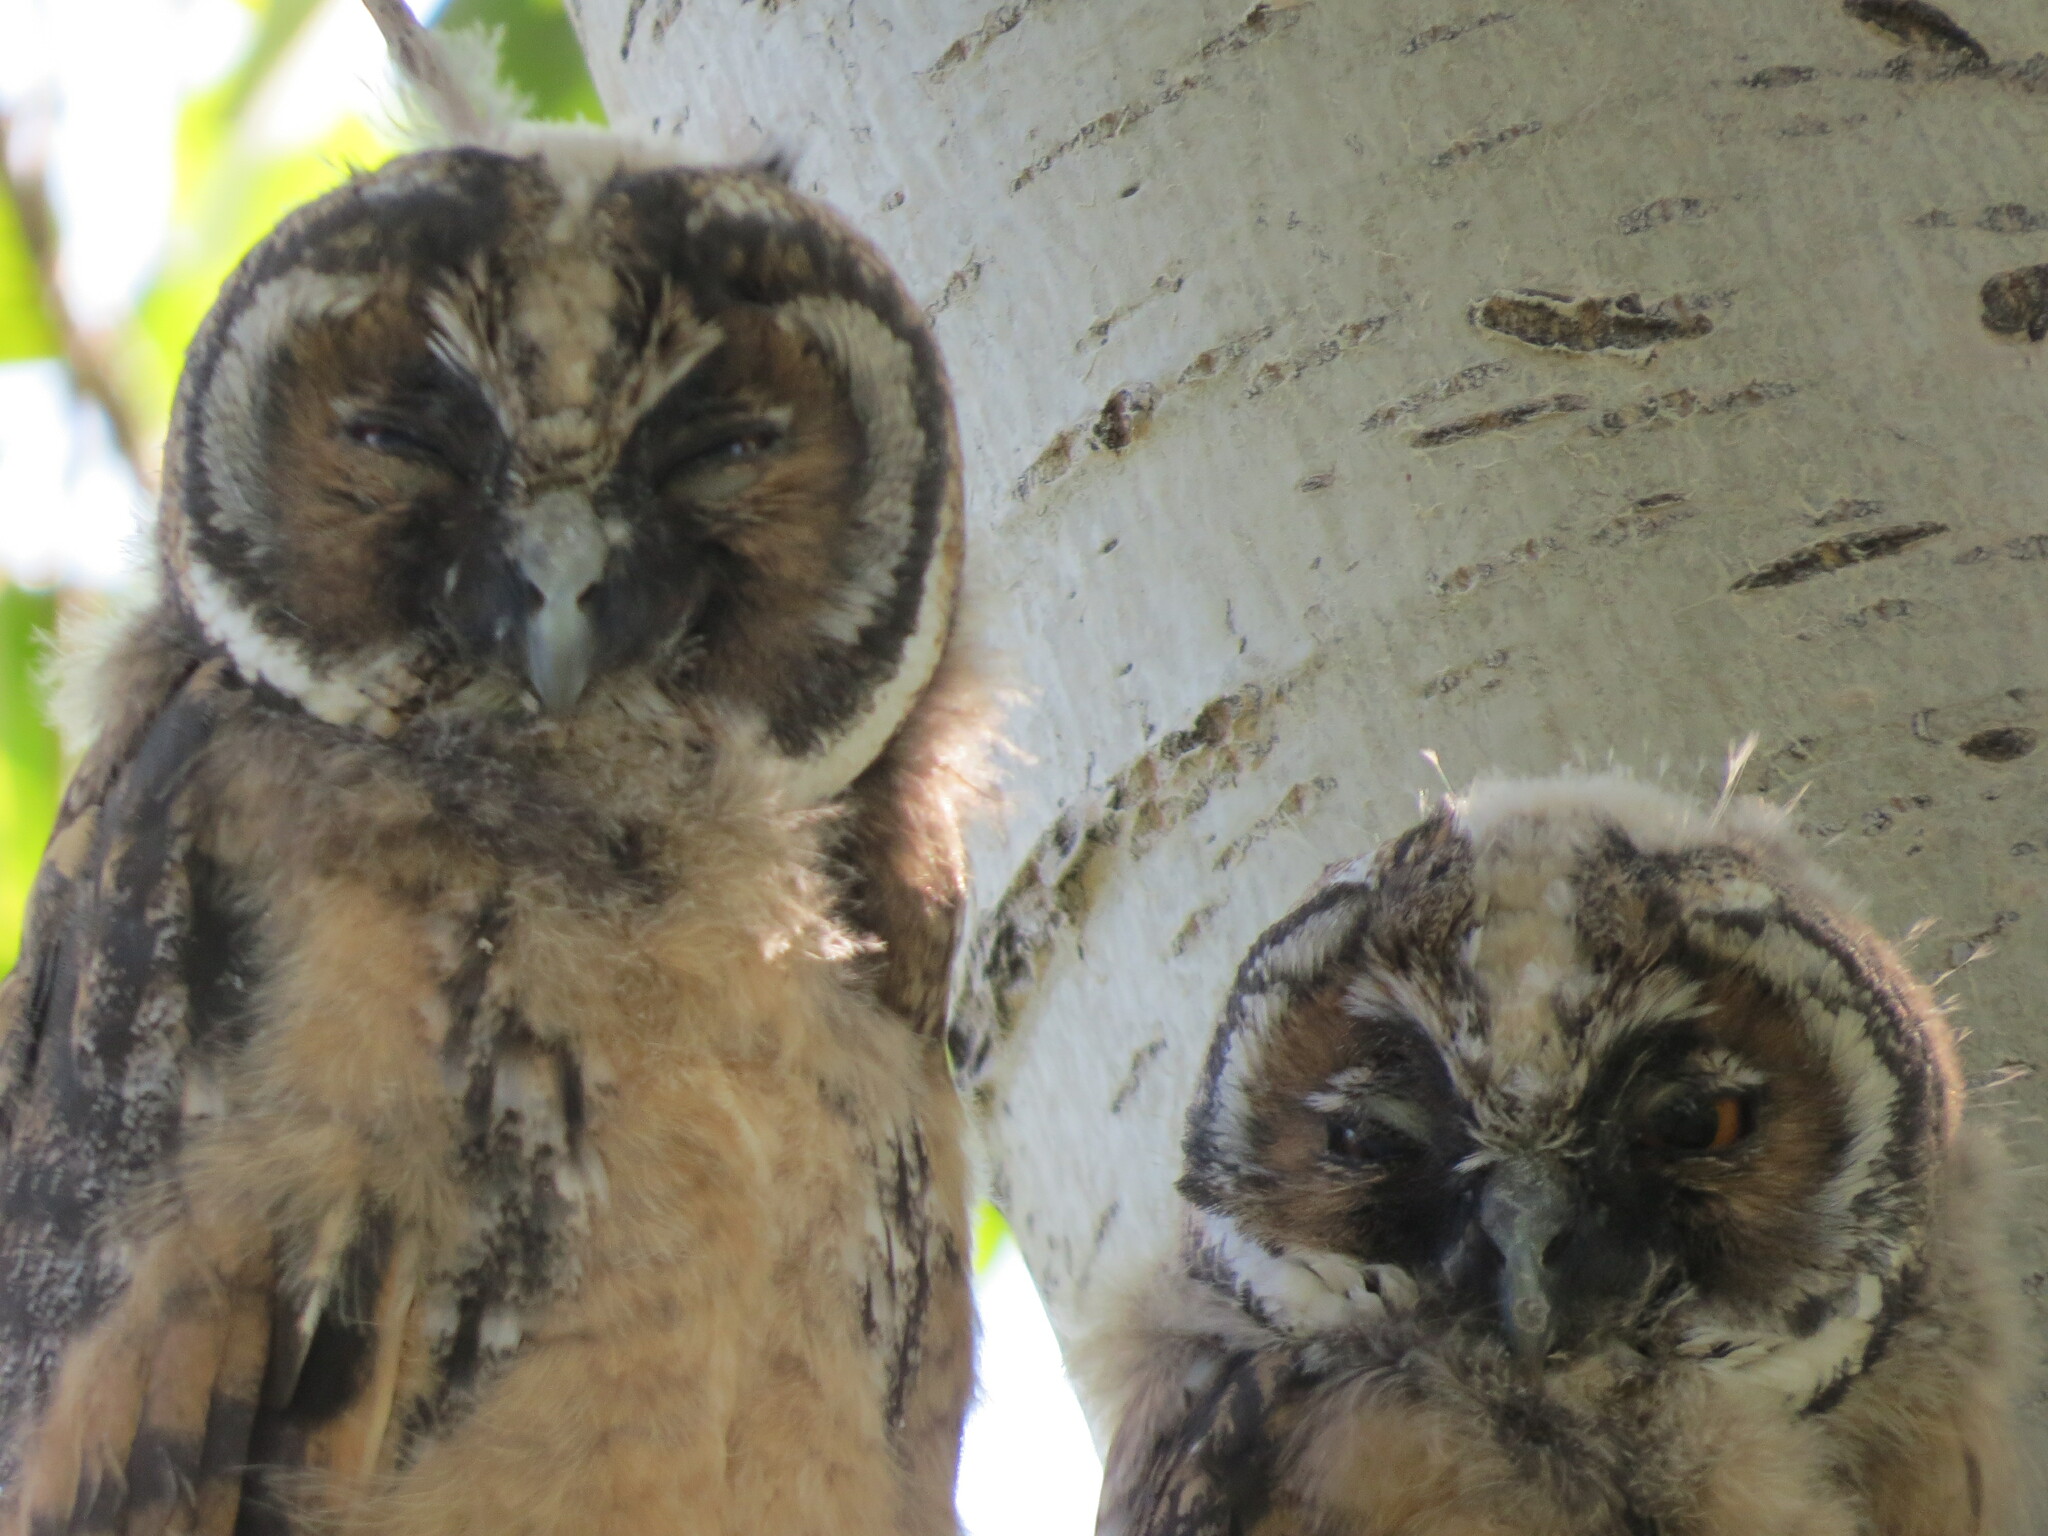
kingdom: Animalia
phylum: Chordata
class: Aves
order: Strigiformes
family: Strigidae
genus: Asio
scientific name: Asio otus
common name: Long-eared owl
